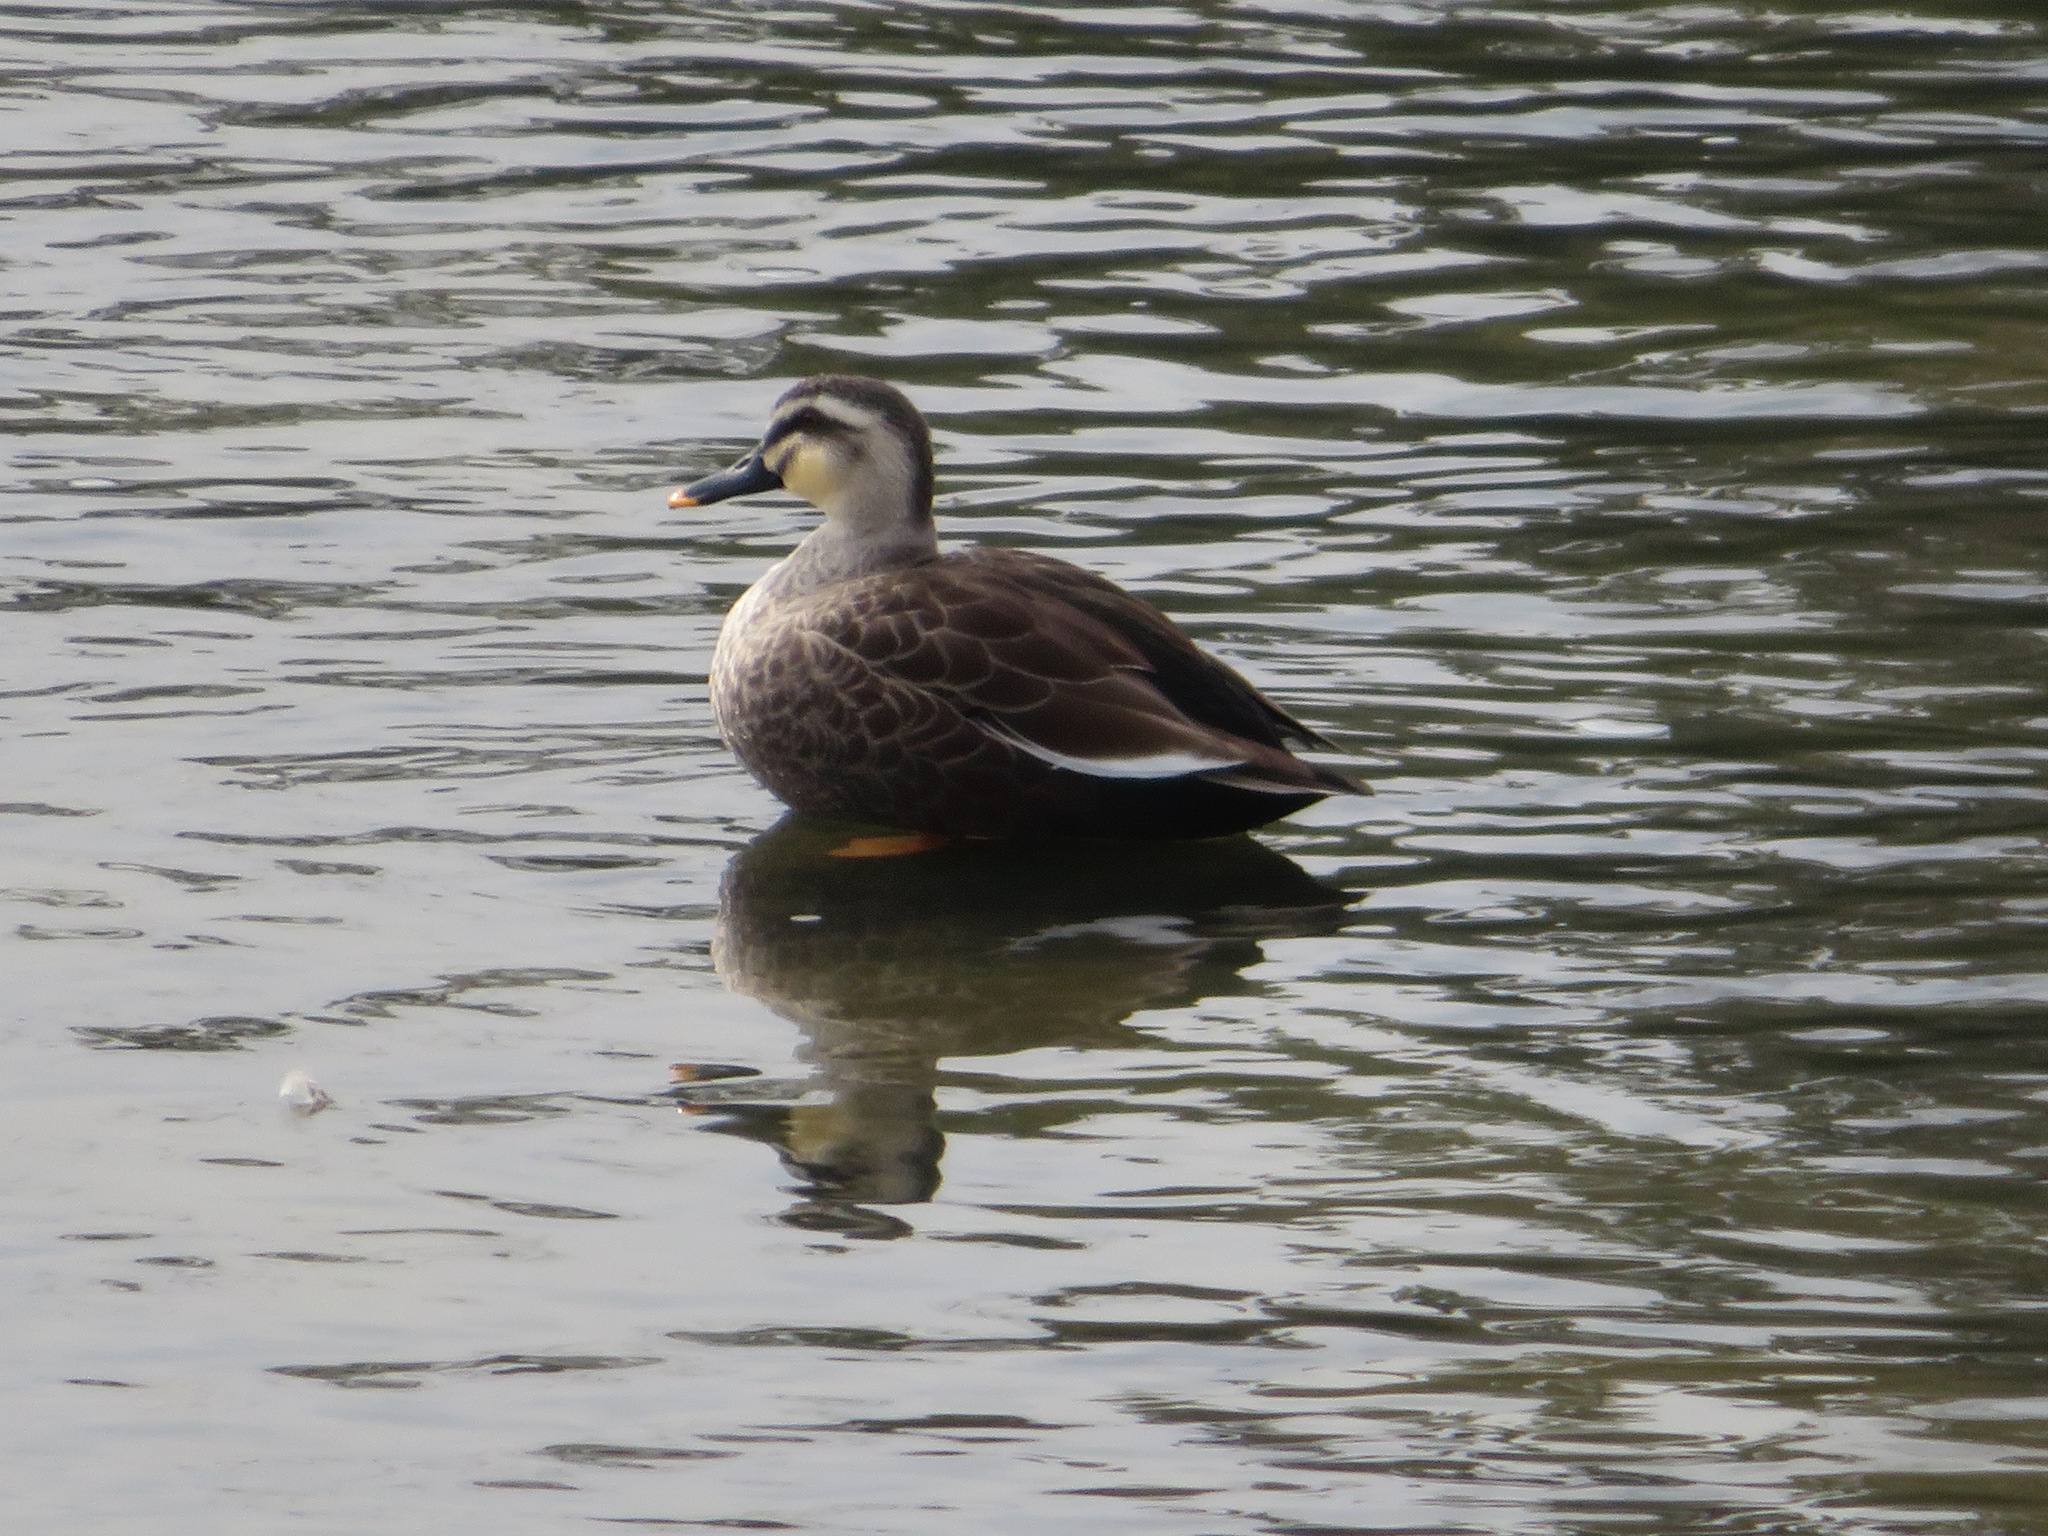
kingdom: Animalia
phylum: Chordata
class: Aves
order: Anseriformes
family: Anatidae
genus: Anas
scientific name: Anas zonorhyncha
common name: Eastern spot-billed duck
